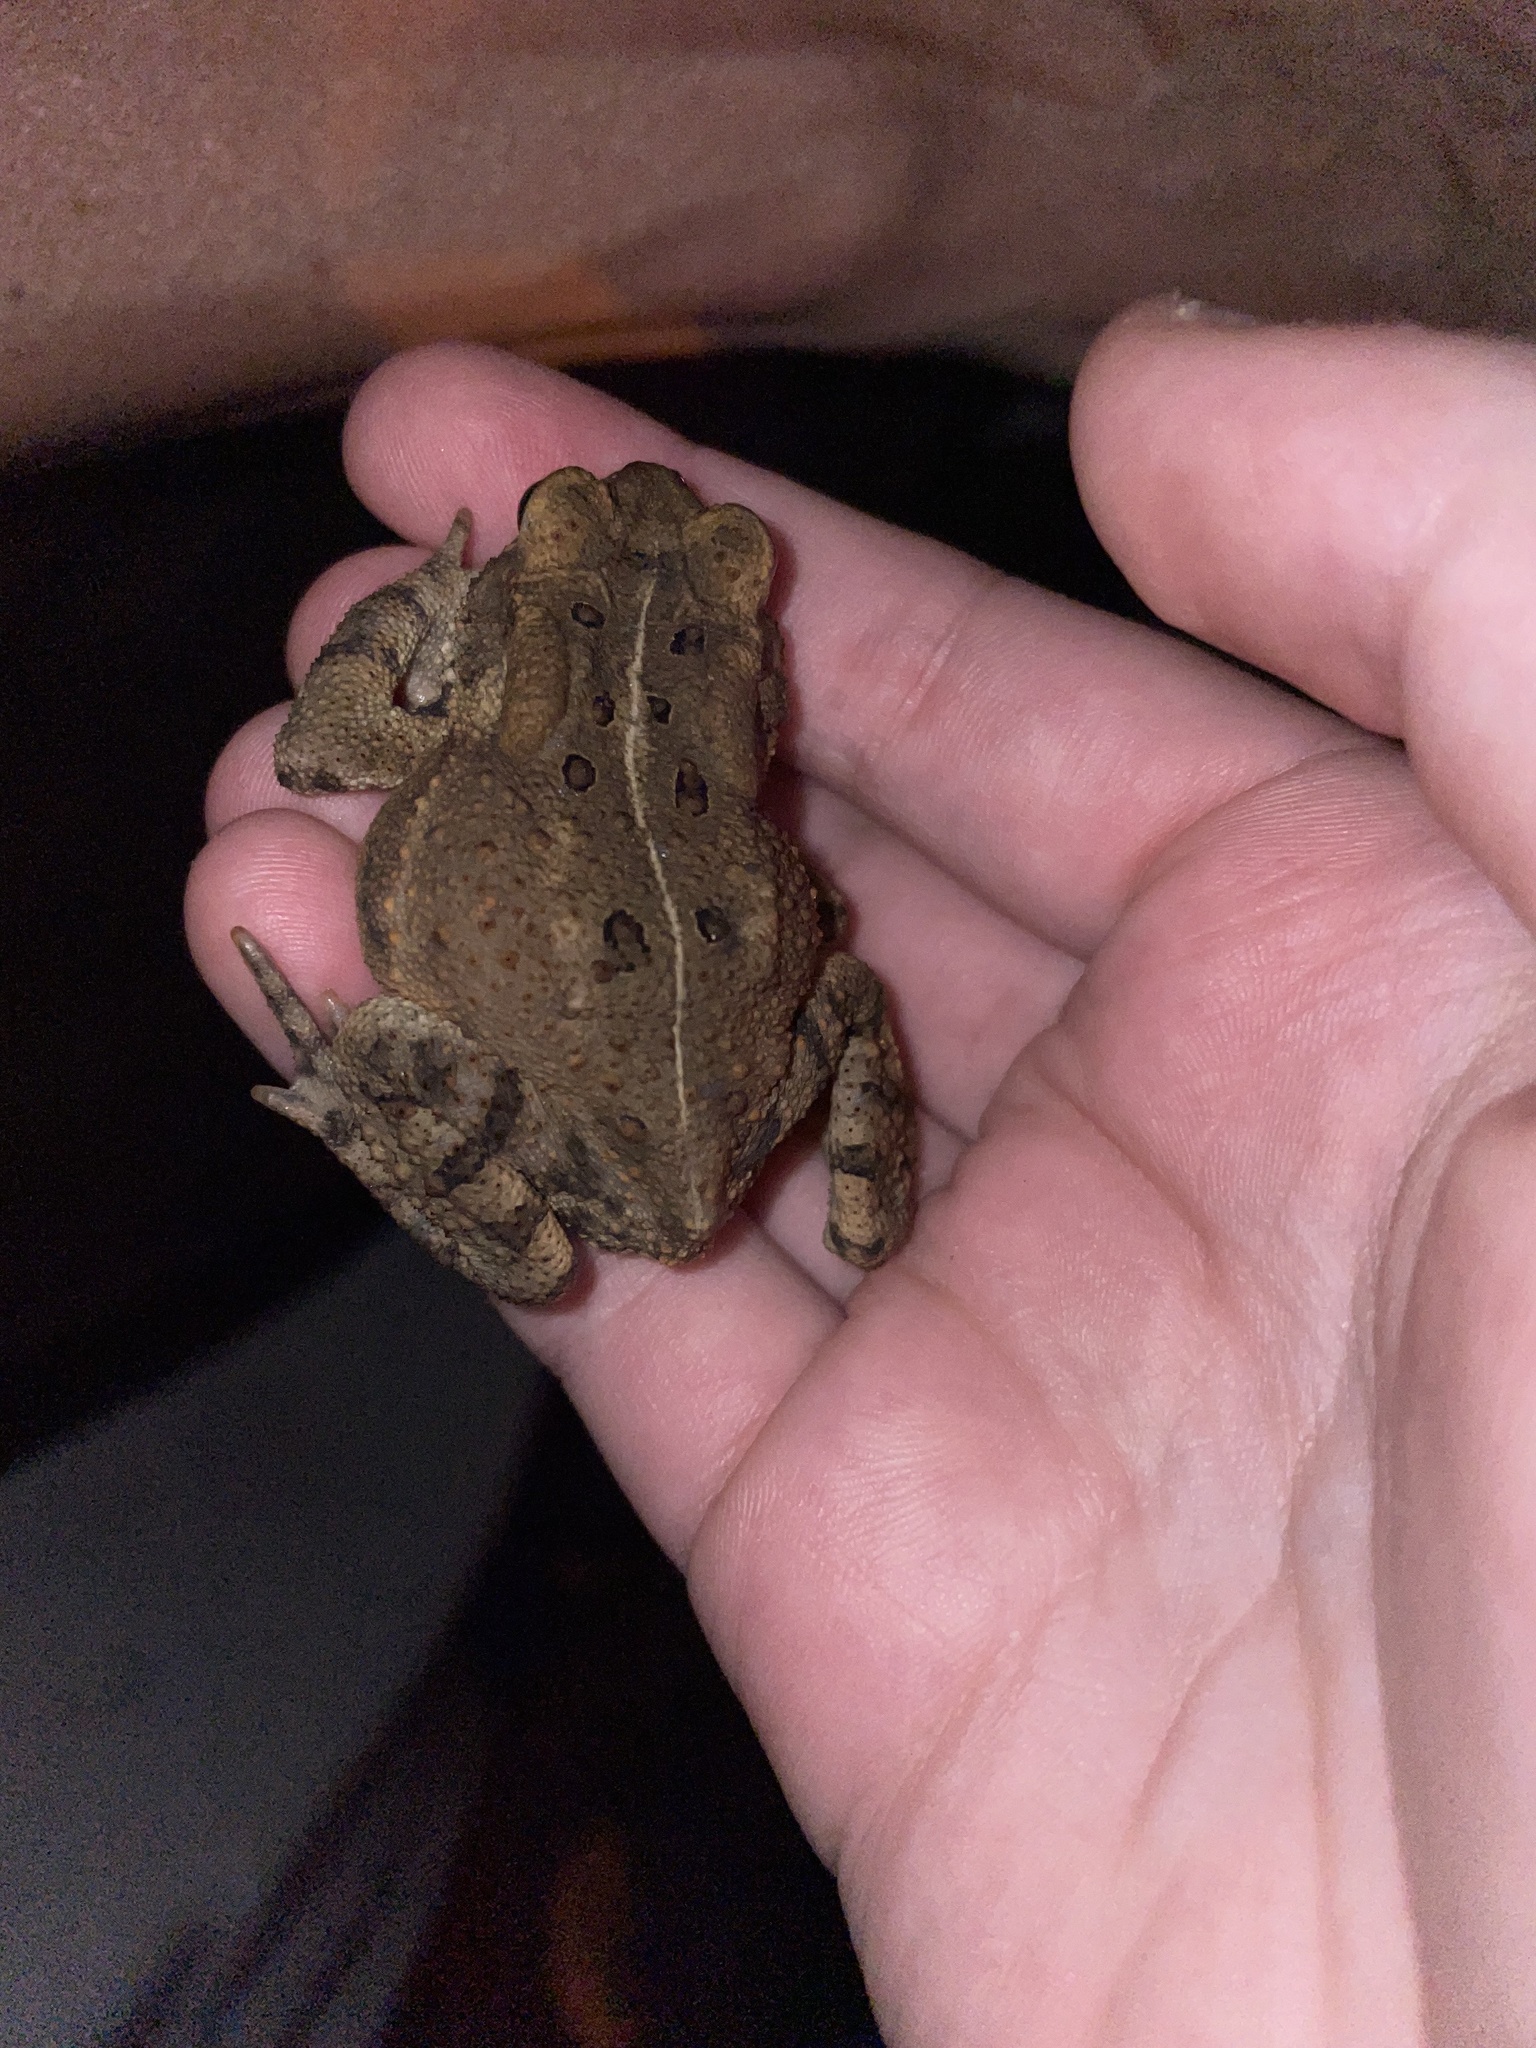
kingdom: Animalia
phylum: Chordata
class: Amphibia
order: Anura
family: Bufonidae
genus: Anaxyrus
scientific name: Anaxyrus americanus
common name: American toad
